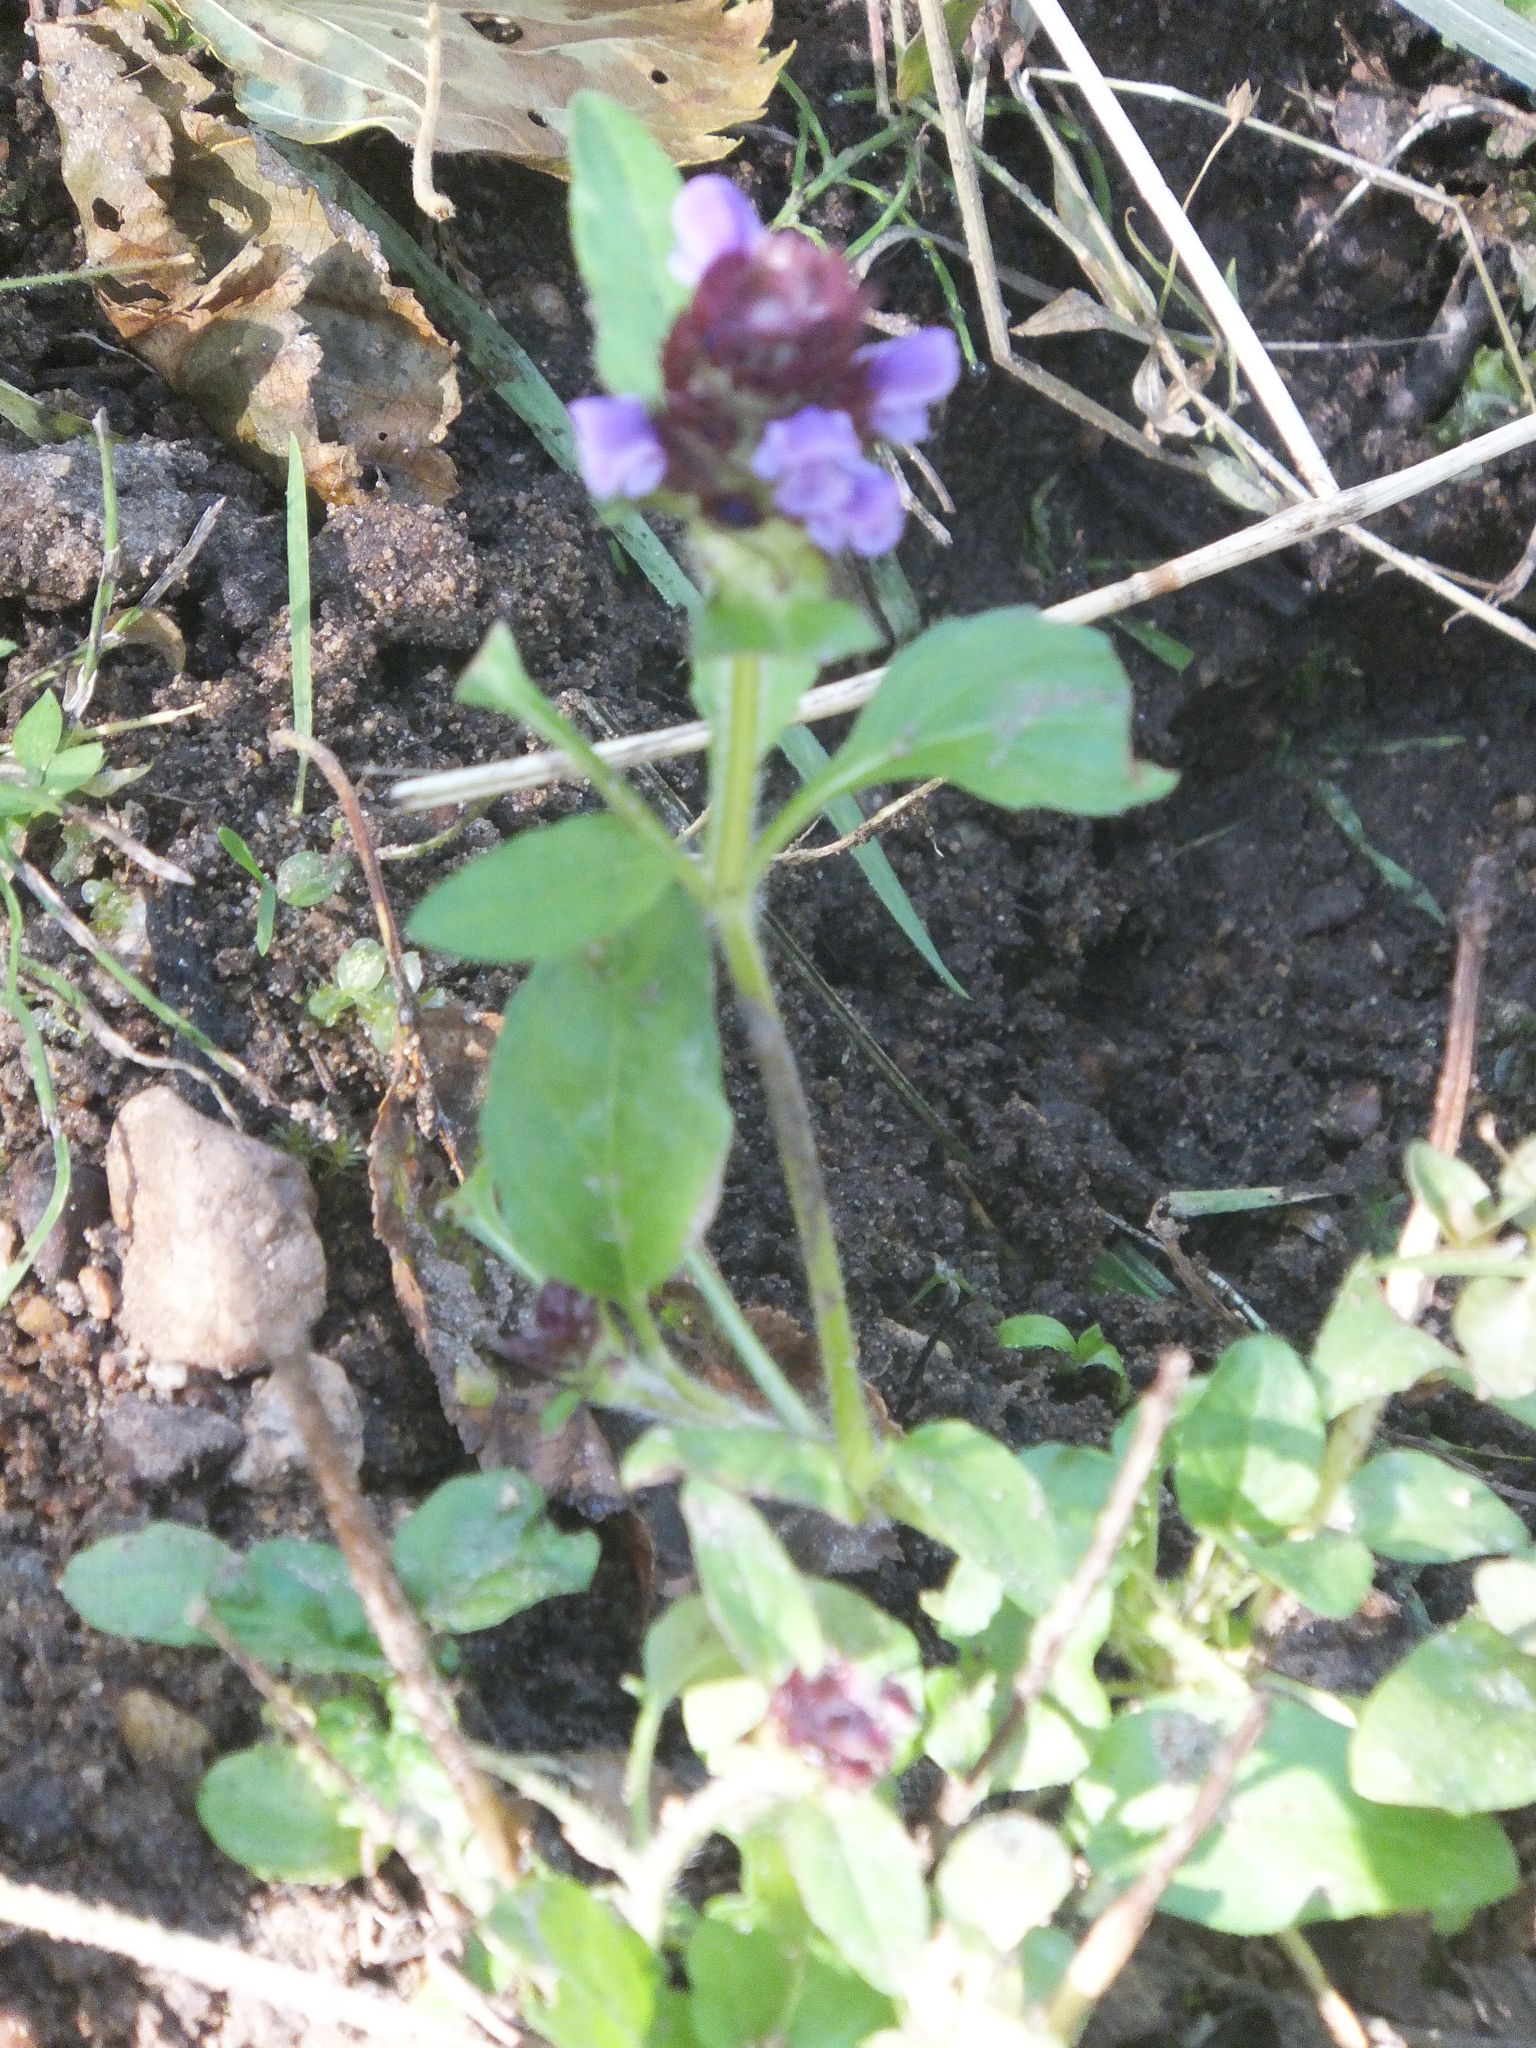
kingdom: Plantae
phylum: Tracheophyta
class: Magnoliopsida
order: Lamiales
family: Lamiaceae
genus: Prunella
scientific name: Prunella vulgaris
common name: Heal-all
